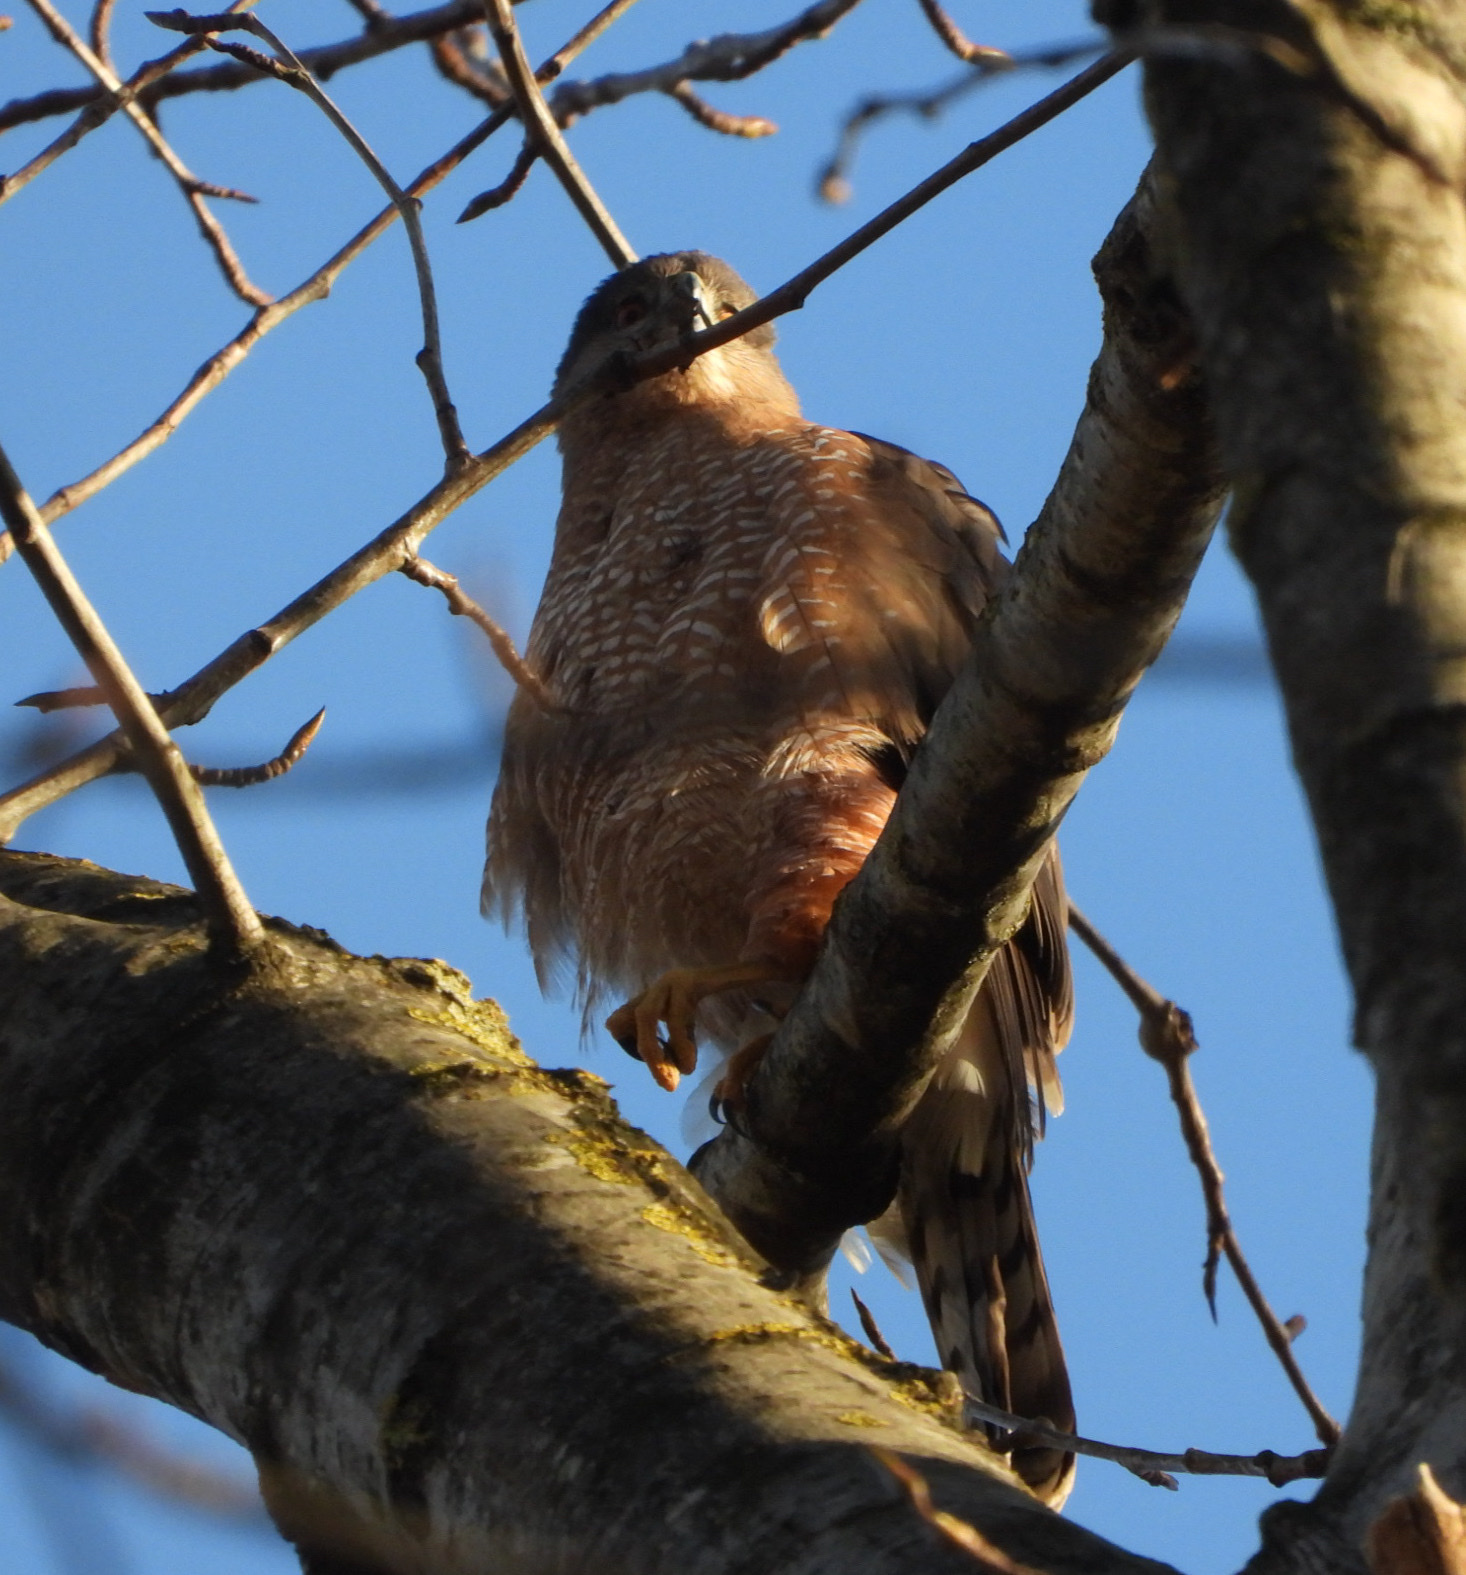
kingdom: Animalia
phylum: Chordata
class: Aves
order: Accipitriformes
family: Accipitridae
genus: Accipiter
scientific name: Accipiter cooperii
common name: Cooper's hawk
